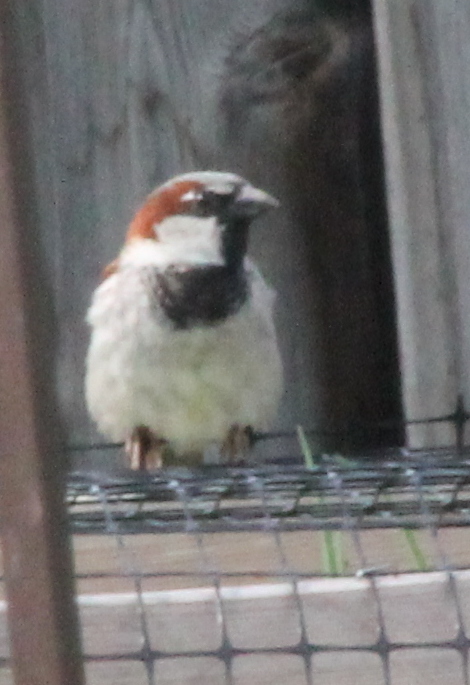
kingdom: Animalia
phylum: Chordata
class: Aves
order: Passeriformes
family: Passeridae
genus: Passer
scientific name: Passer domesticus
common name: House sparrow
